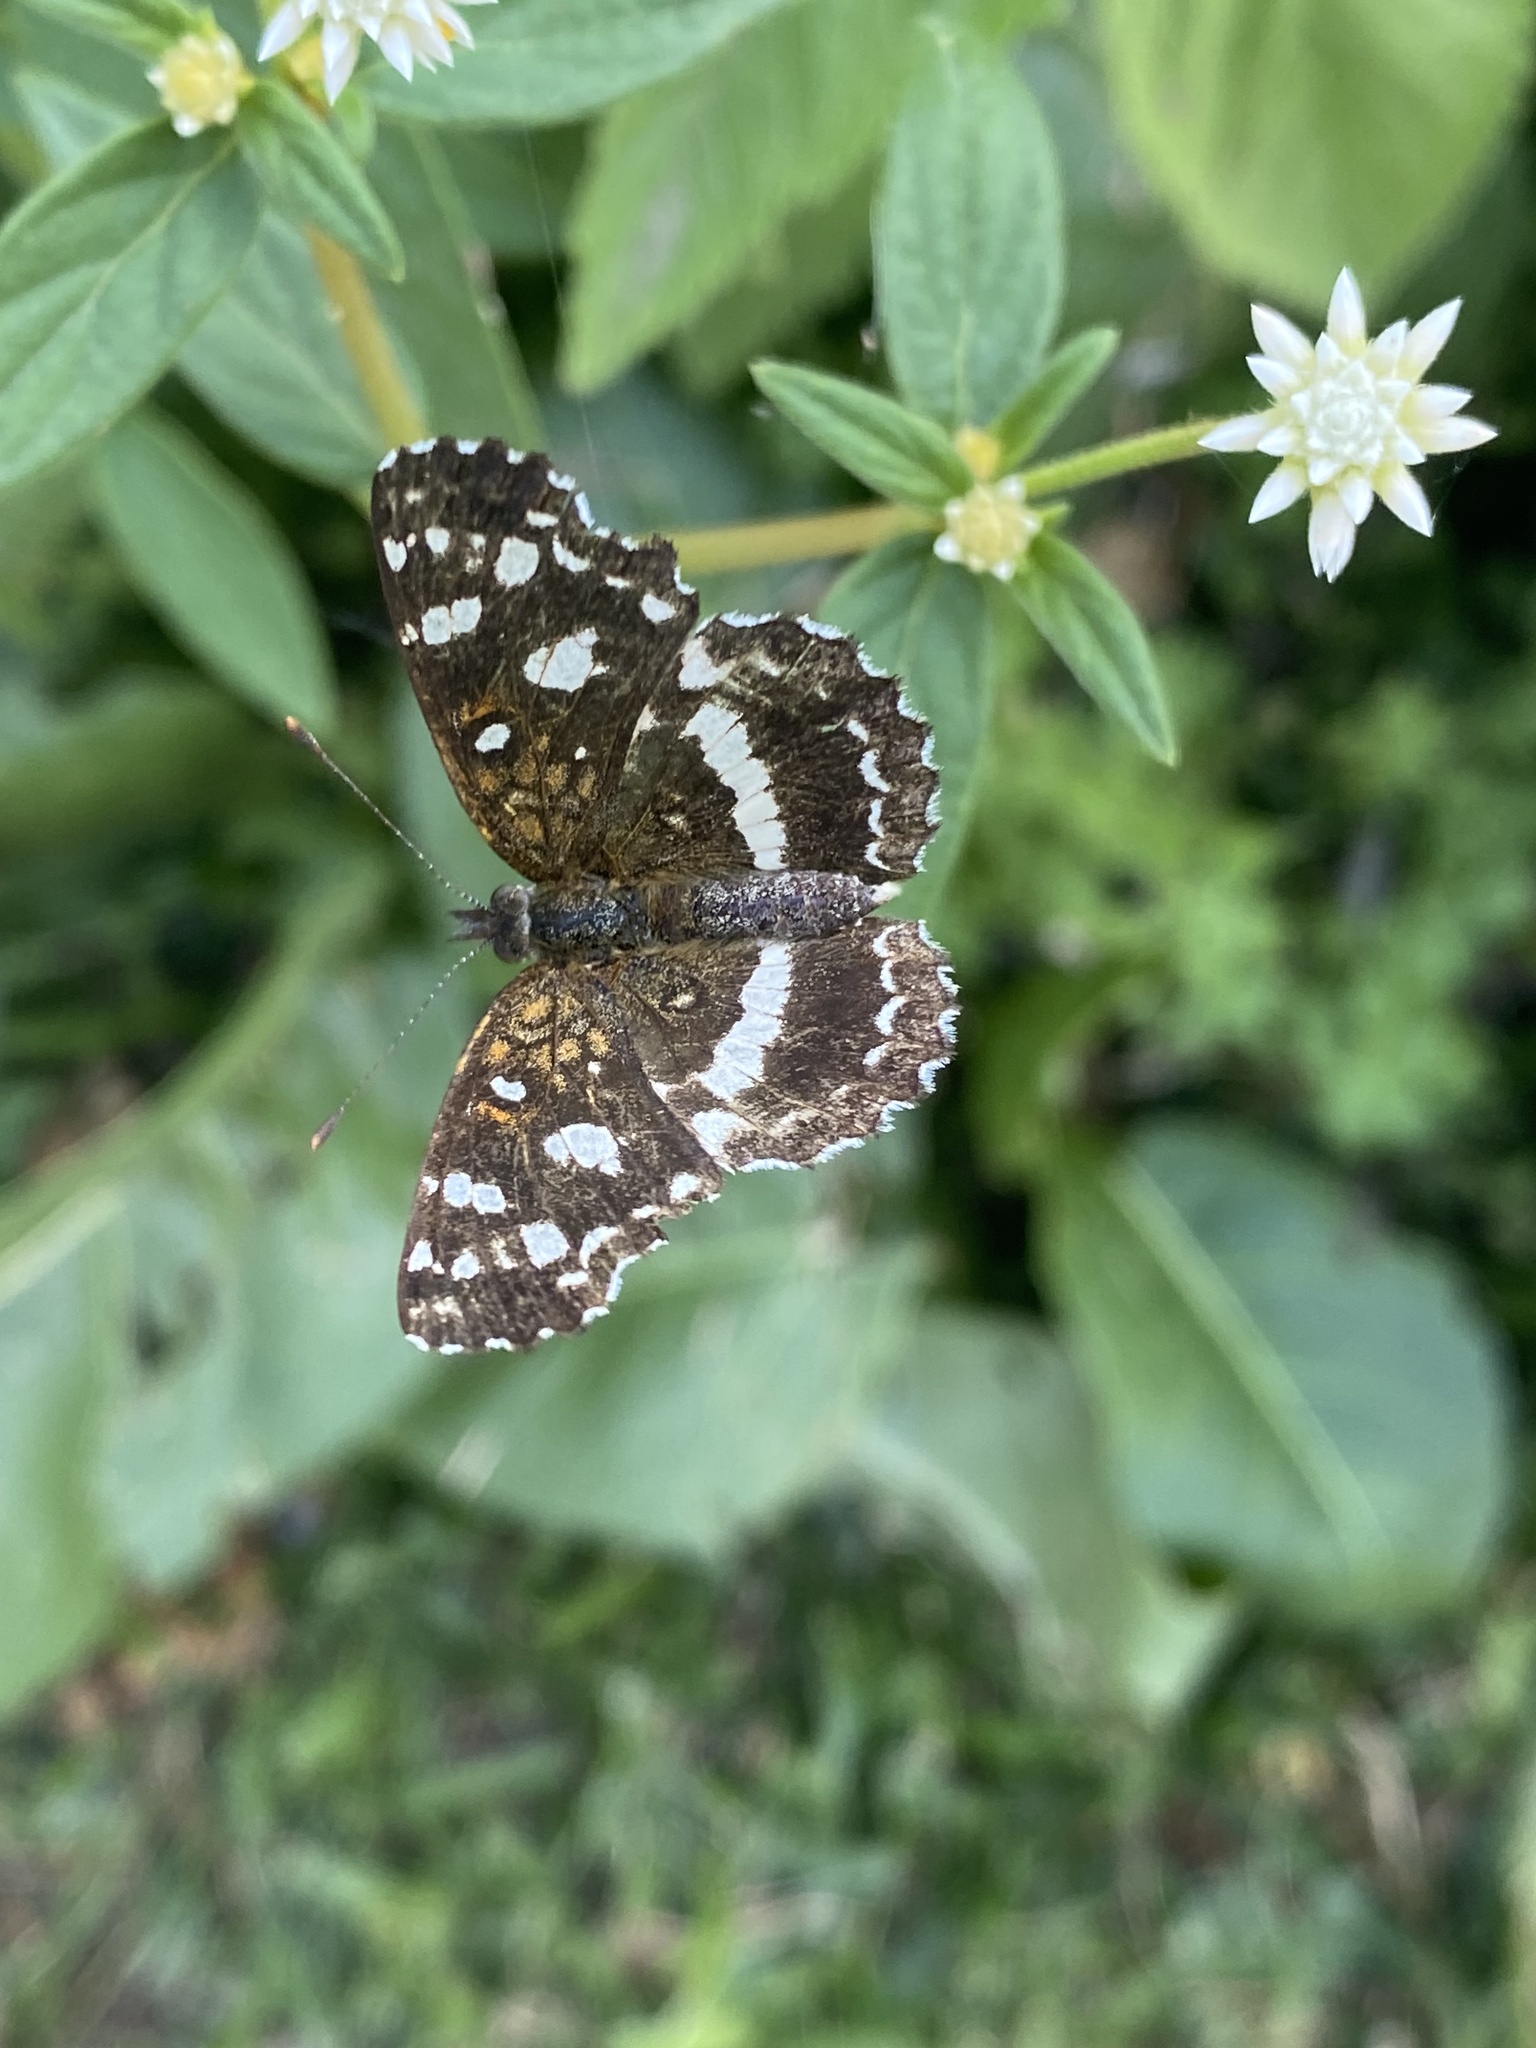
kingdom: Animalia
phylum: Arthropoda
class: Insecta
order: Lepidoptera
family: Nymphalidae
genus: Ortilia
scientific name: Ortilia ithra
